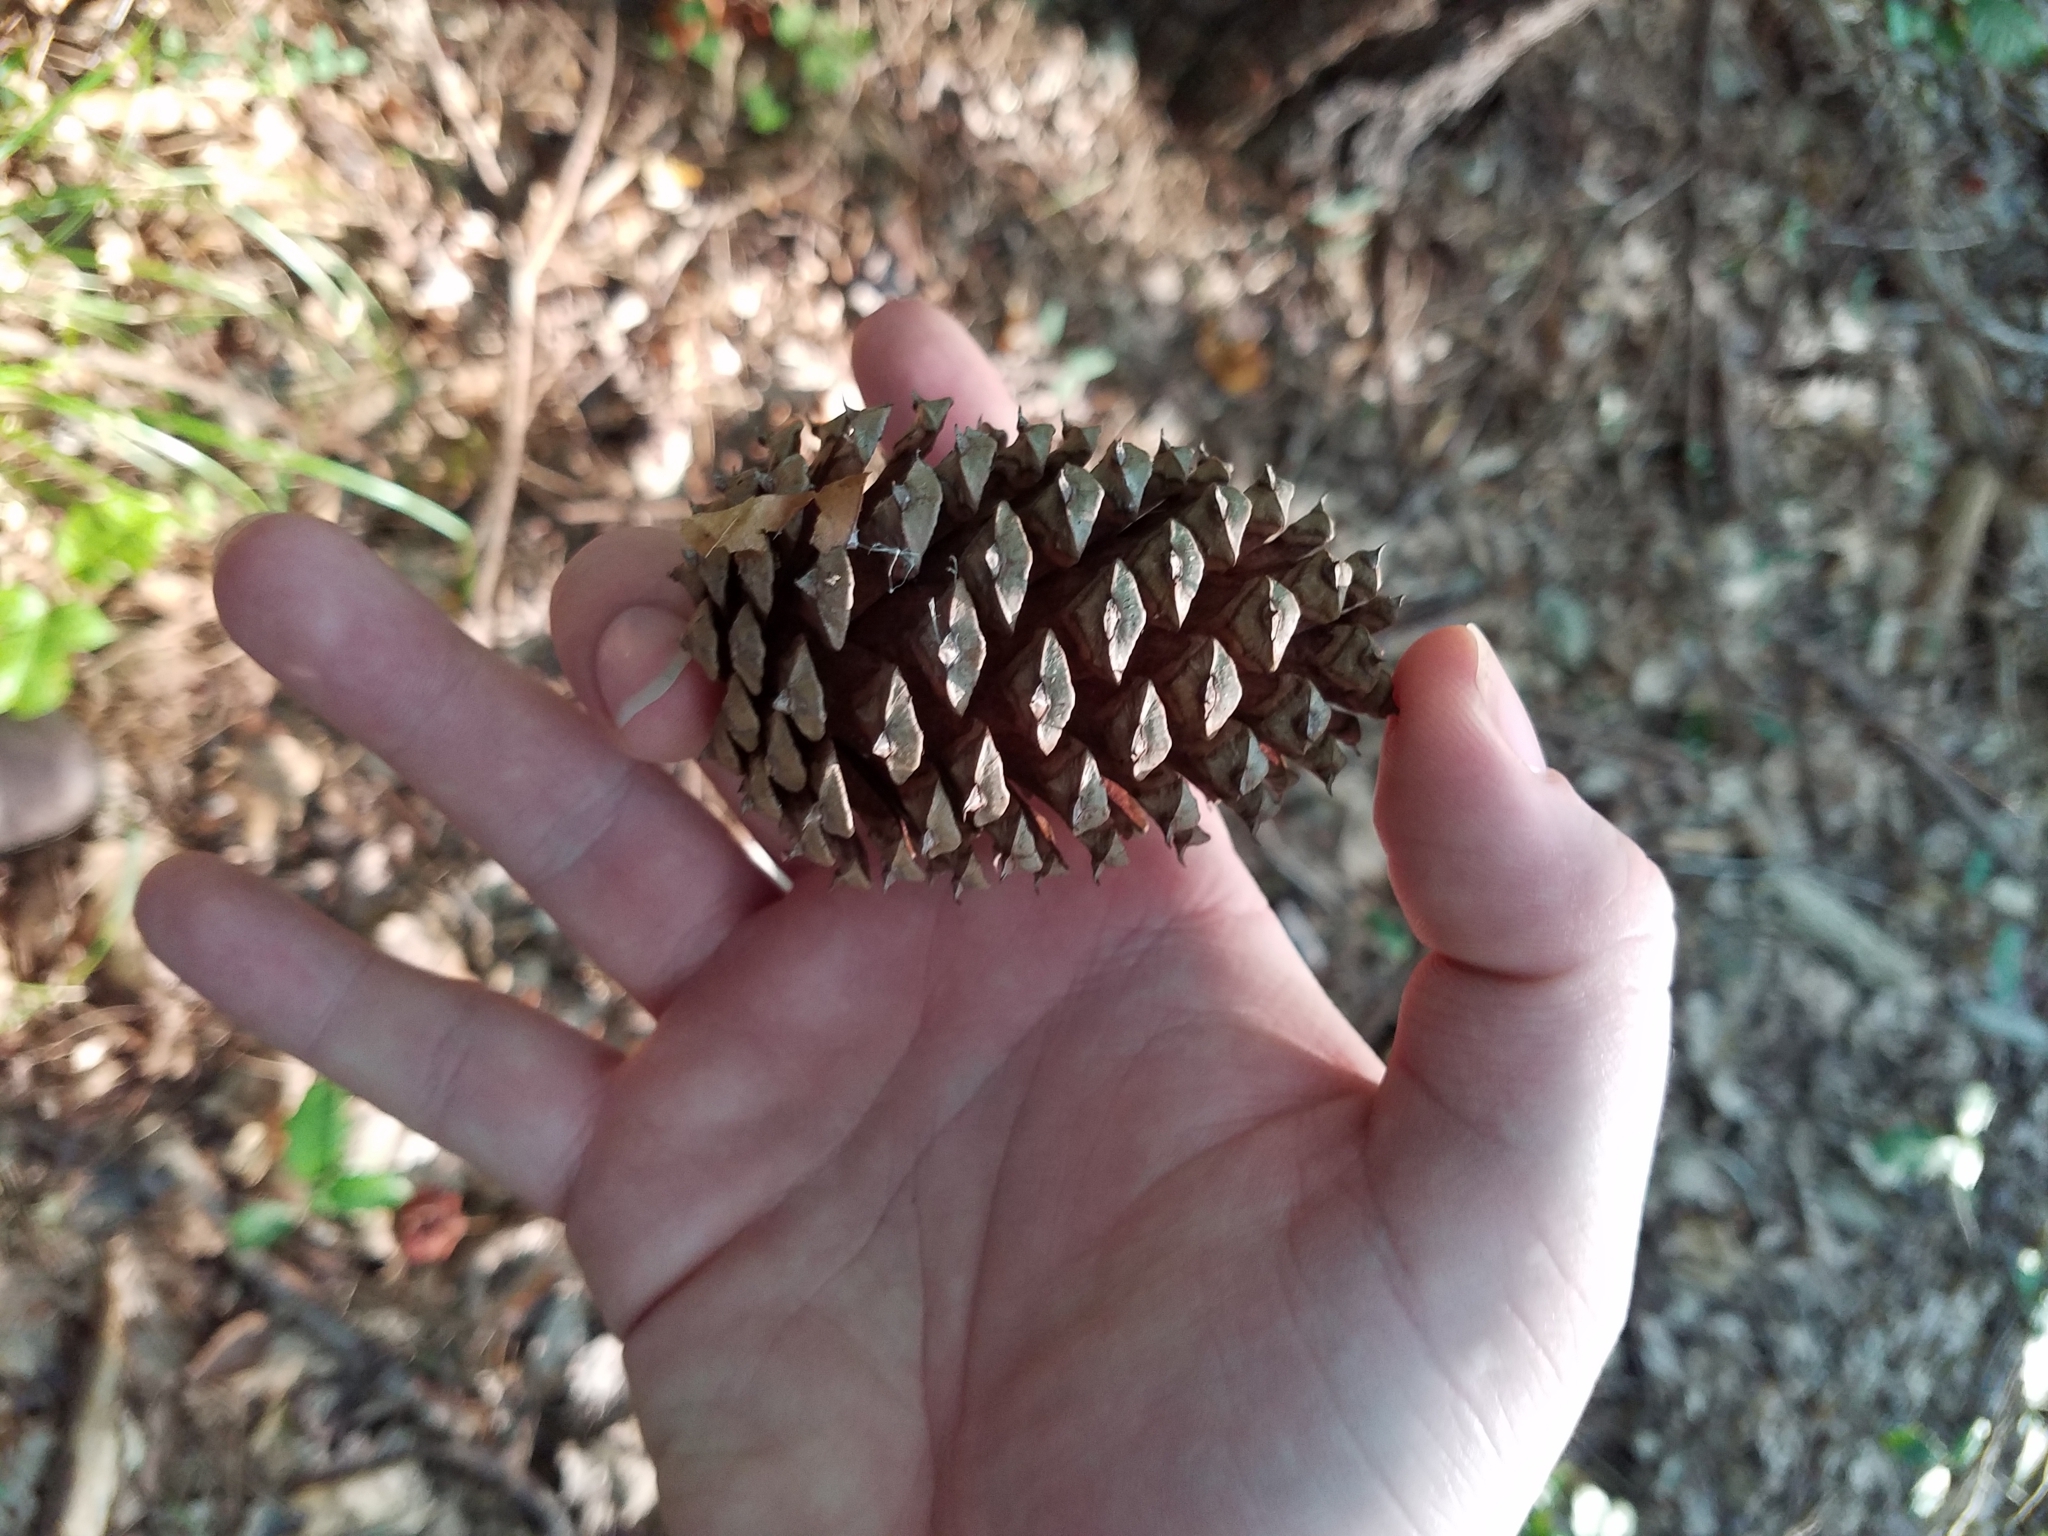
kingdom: Plantae
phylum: Tracheophyta
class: Pinopsida
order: Pinales
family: Pinaceae
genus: Pinus
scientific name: Pinus taeda
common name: Loblolly pine
